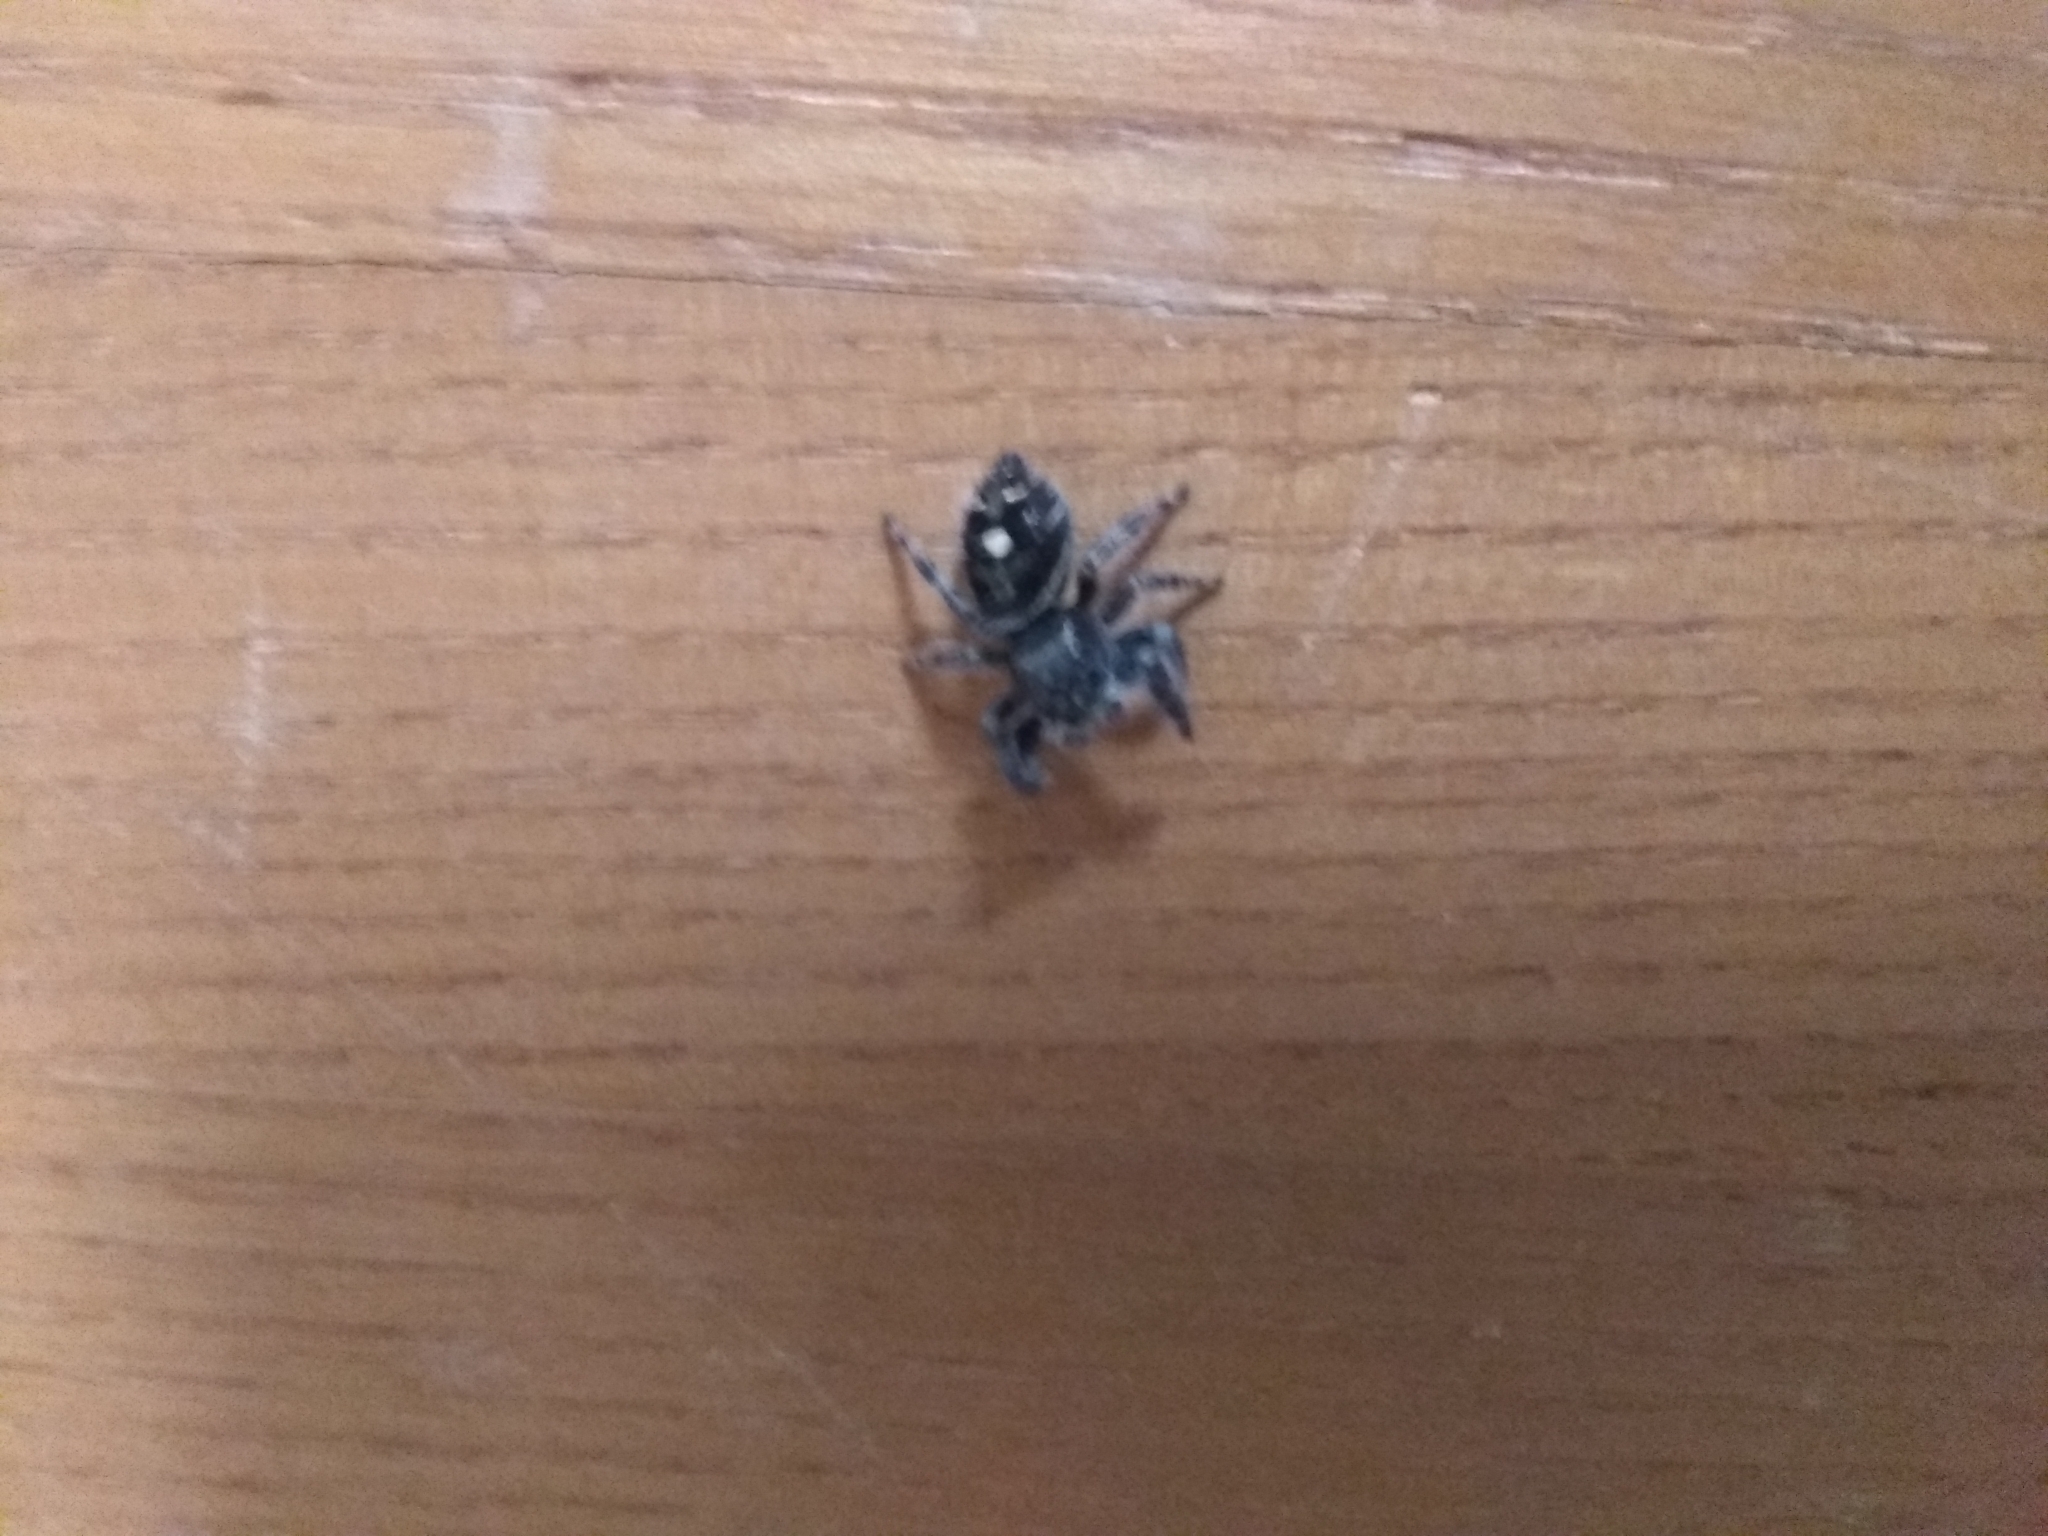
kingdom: Animalia
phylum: Arthropoda
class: Arachnida
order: Araneae
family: Salticidae
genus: Phidippus
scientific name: Phidippus audax
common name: Bold jumper
